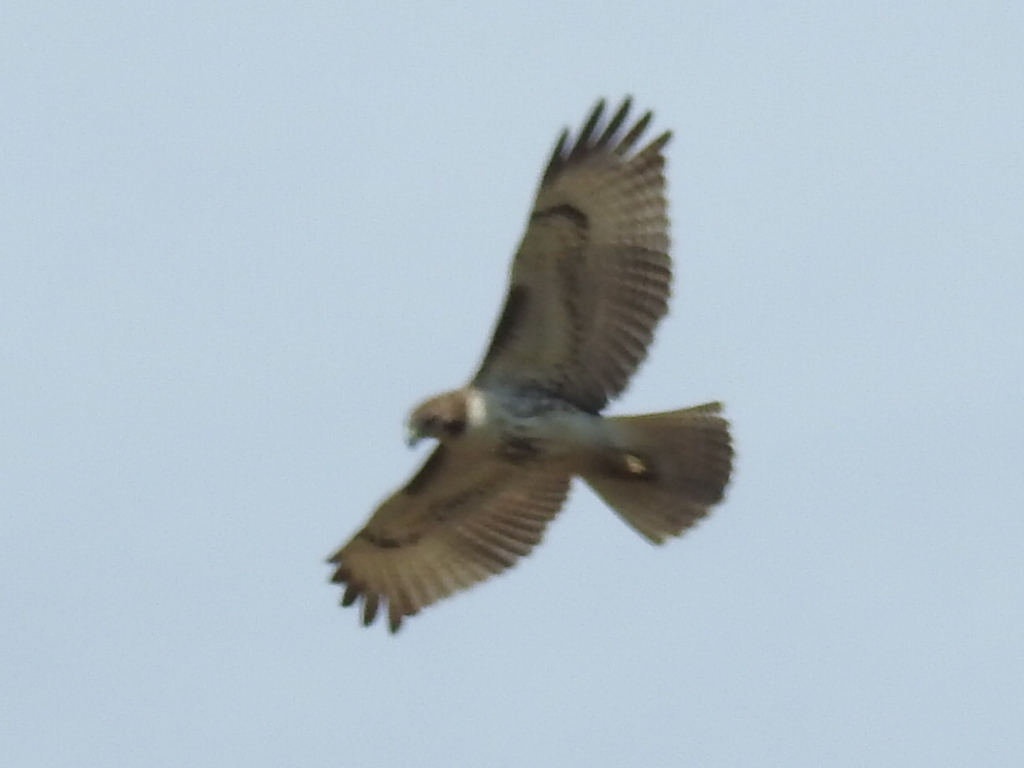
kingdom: Animalia
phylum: Chordata
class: Aves
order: Accipitriformes
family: Accipitridae
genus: Buteo
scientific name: Buteo jamaicensis
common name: Red-tailed hawk
